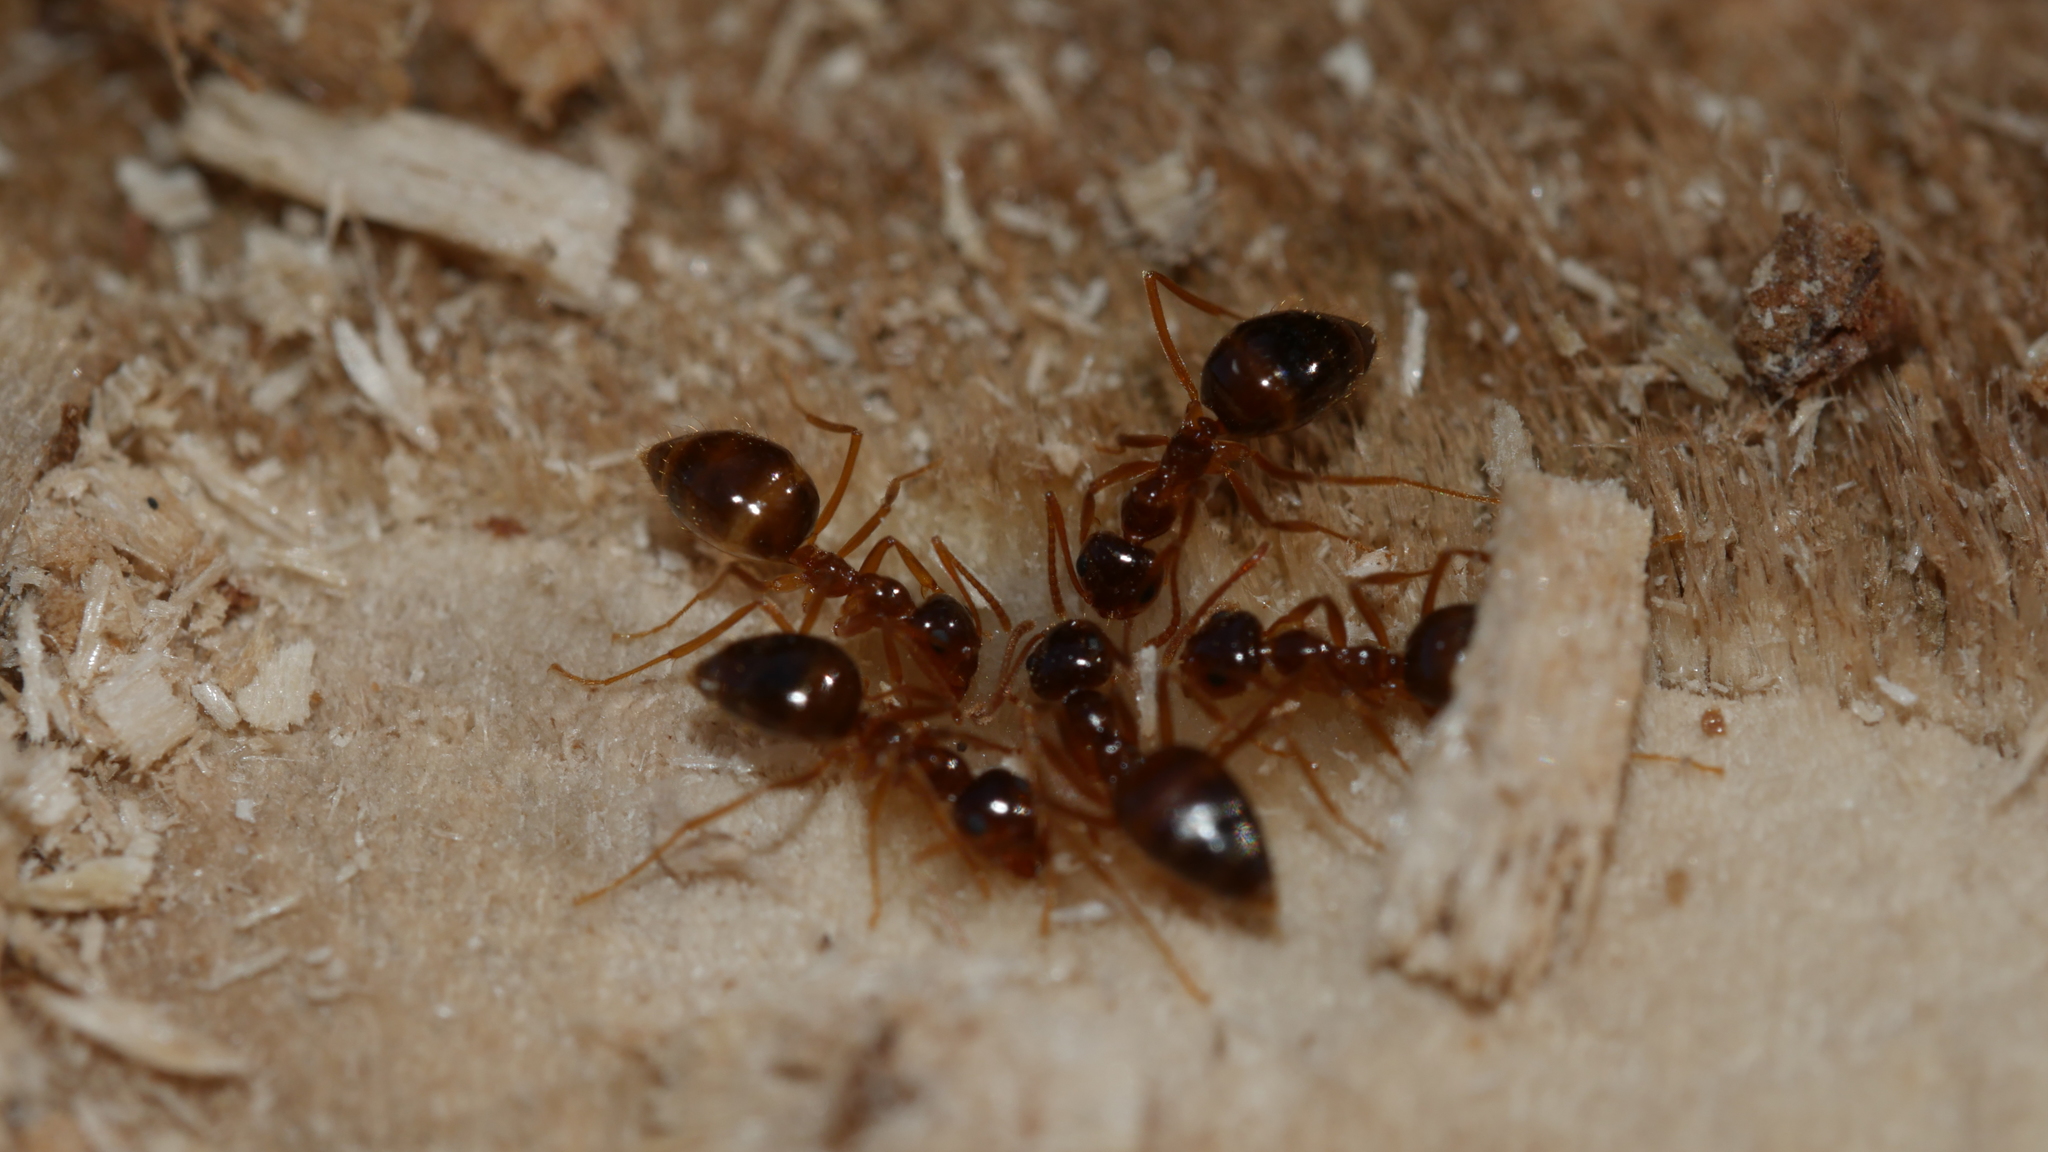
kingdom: Animalia
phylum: Arthropoda
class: Insecta
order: Hymenoptera
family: Formicidae
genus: Prenolepis
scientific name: Prenolepis imparis
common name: Small honey ant
